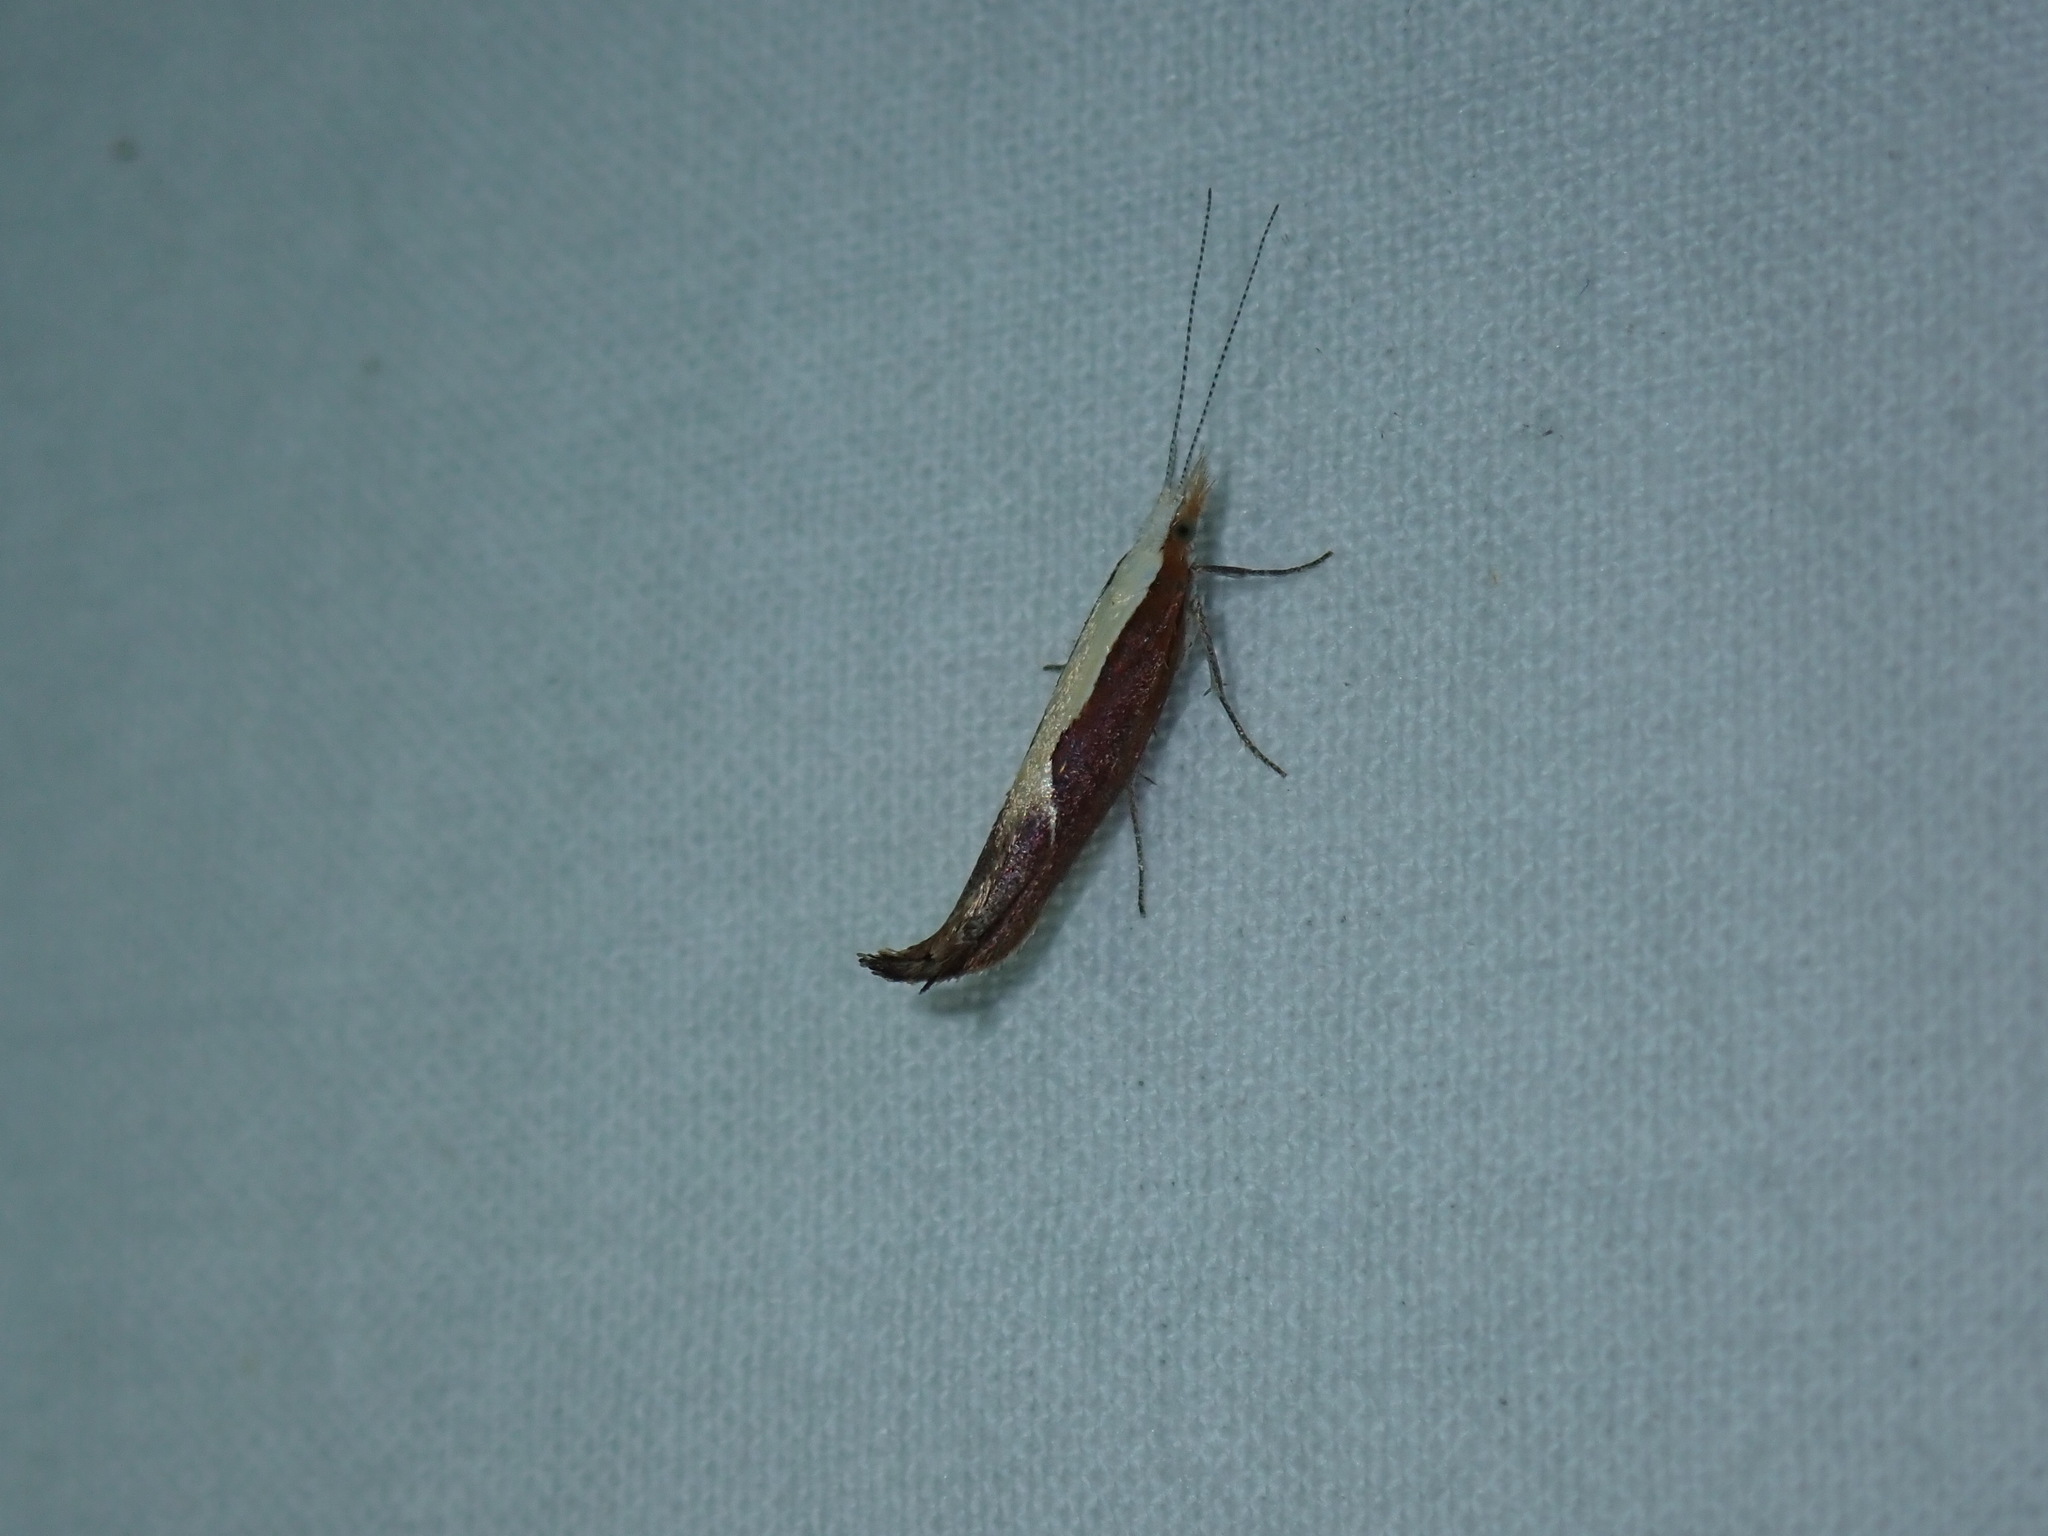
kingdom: Animalia
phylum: Arthropoda
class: Insecta
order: Lepidoptera
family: Ypsolophidae
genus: Ypsolopha
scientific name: Ypsolopha dentella
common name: Honeysuckle moth
